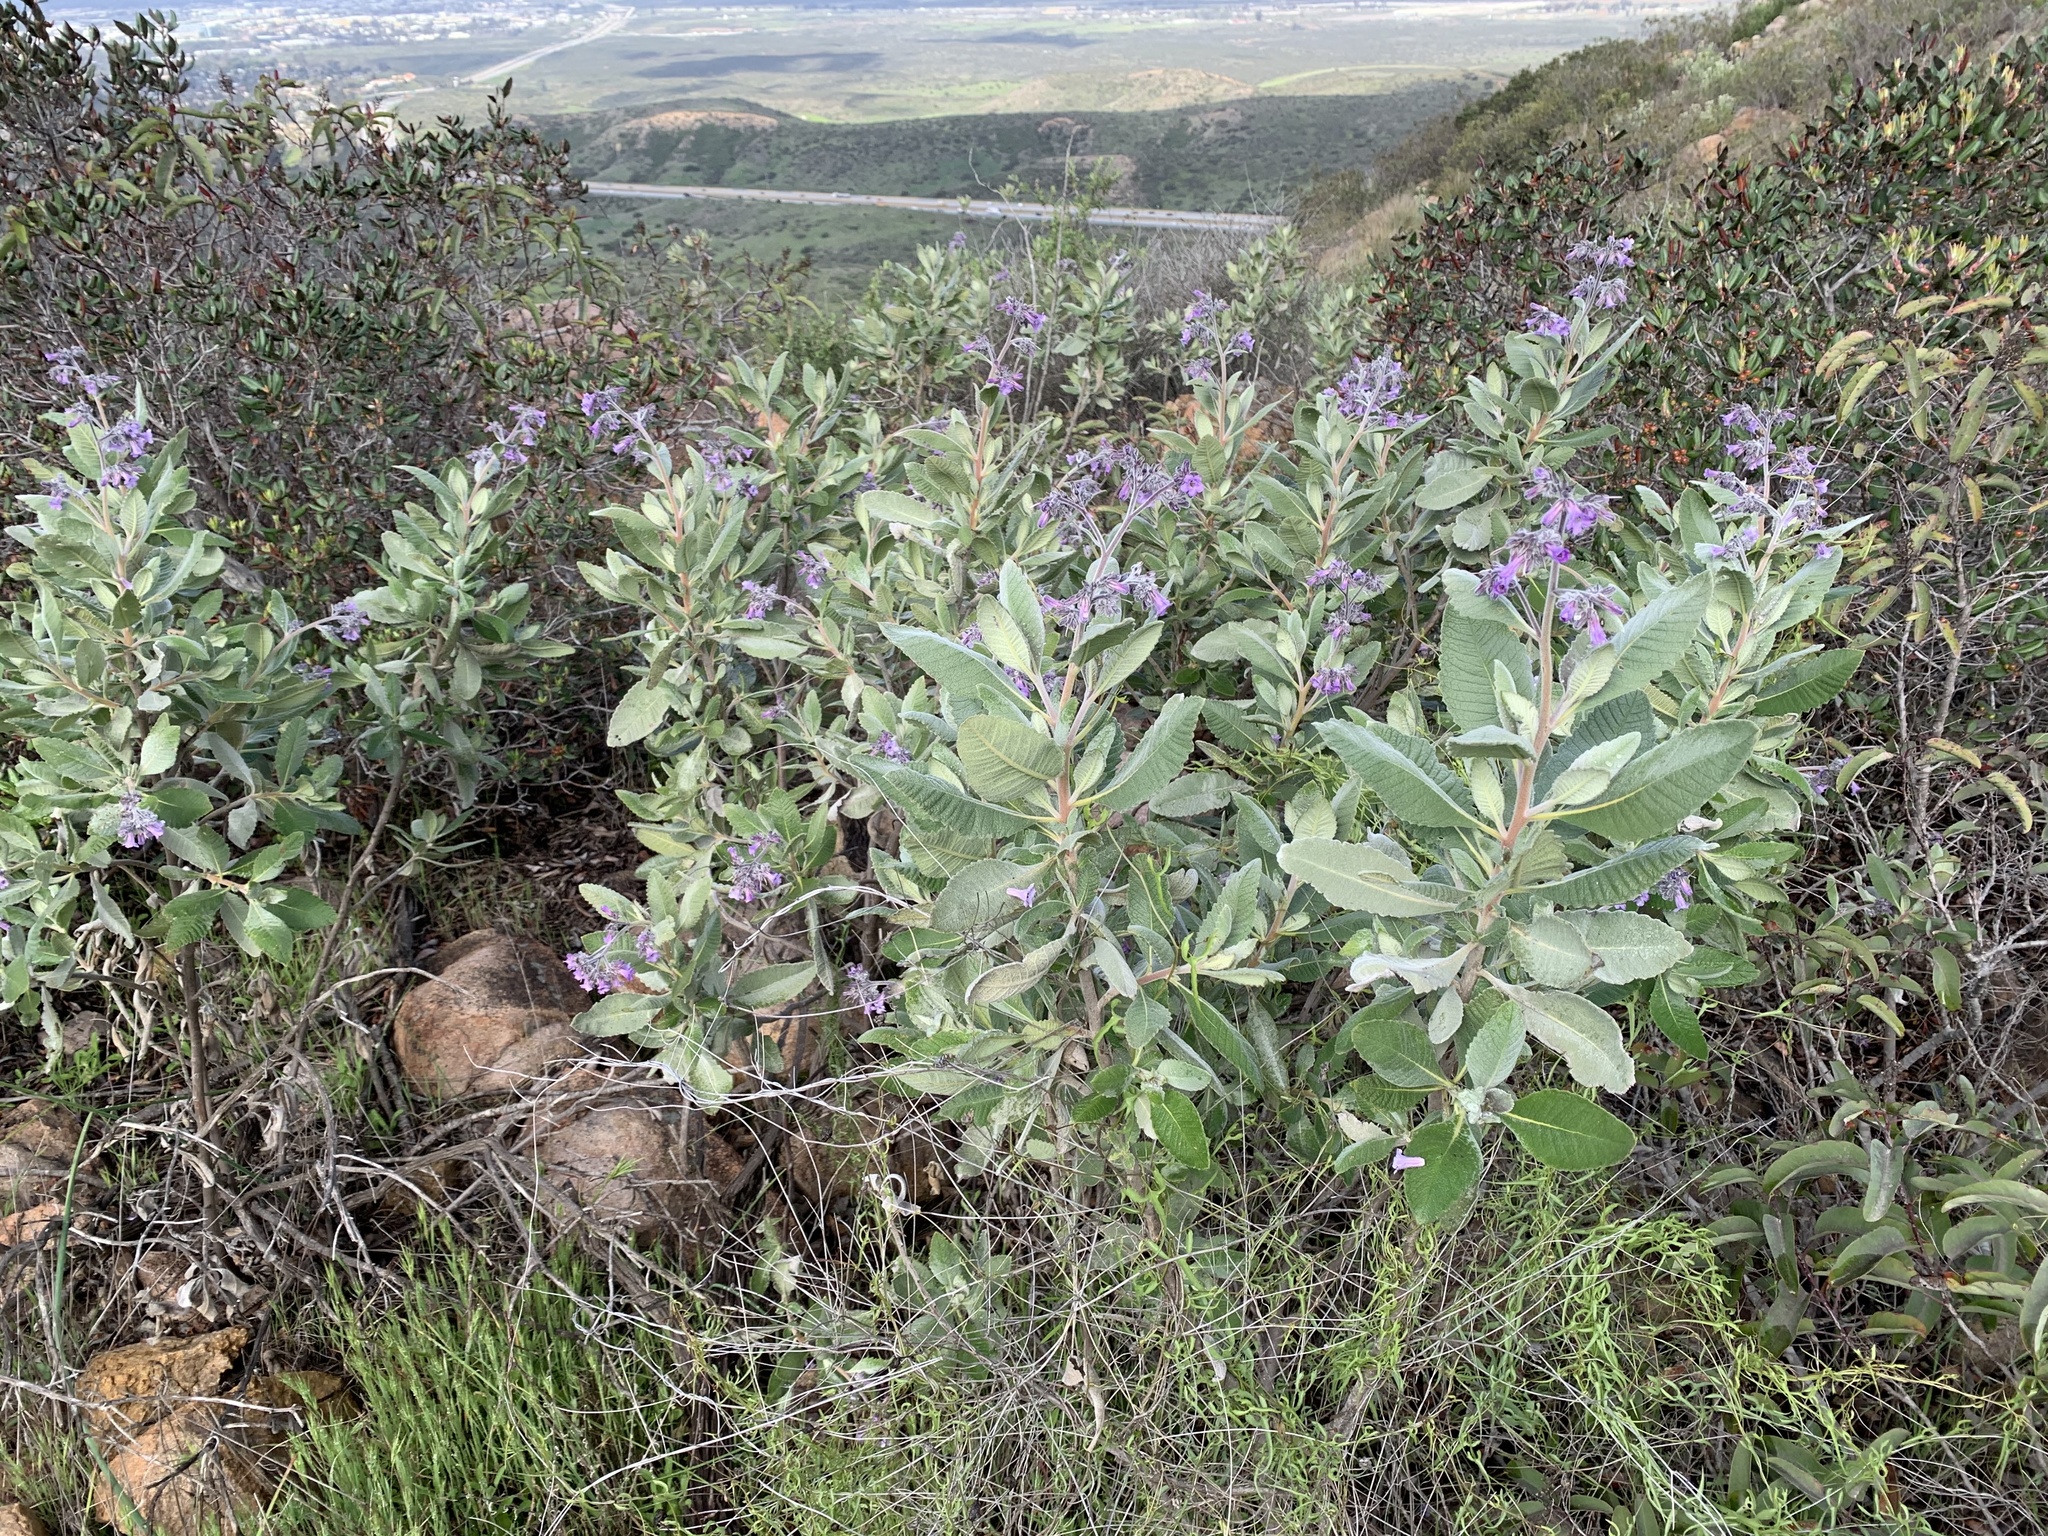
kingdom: Plantae
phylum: Tracheophyta
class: Magnoliopsida
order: Boraginales
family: Namaceae
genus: Eriodictyon
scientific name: Eriodictyon crassifolium
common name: Thick-leaf yerba-santa
